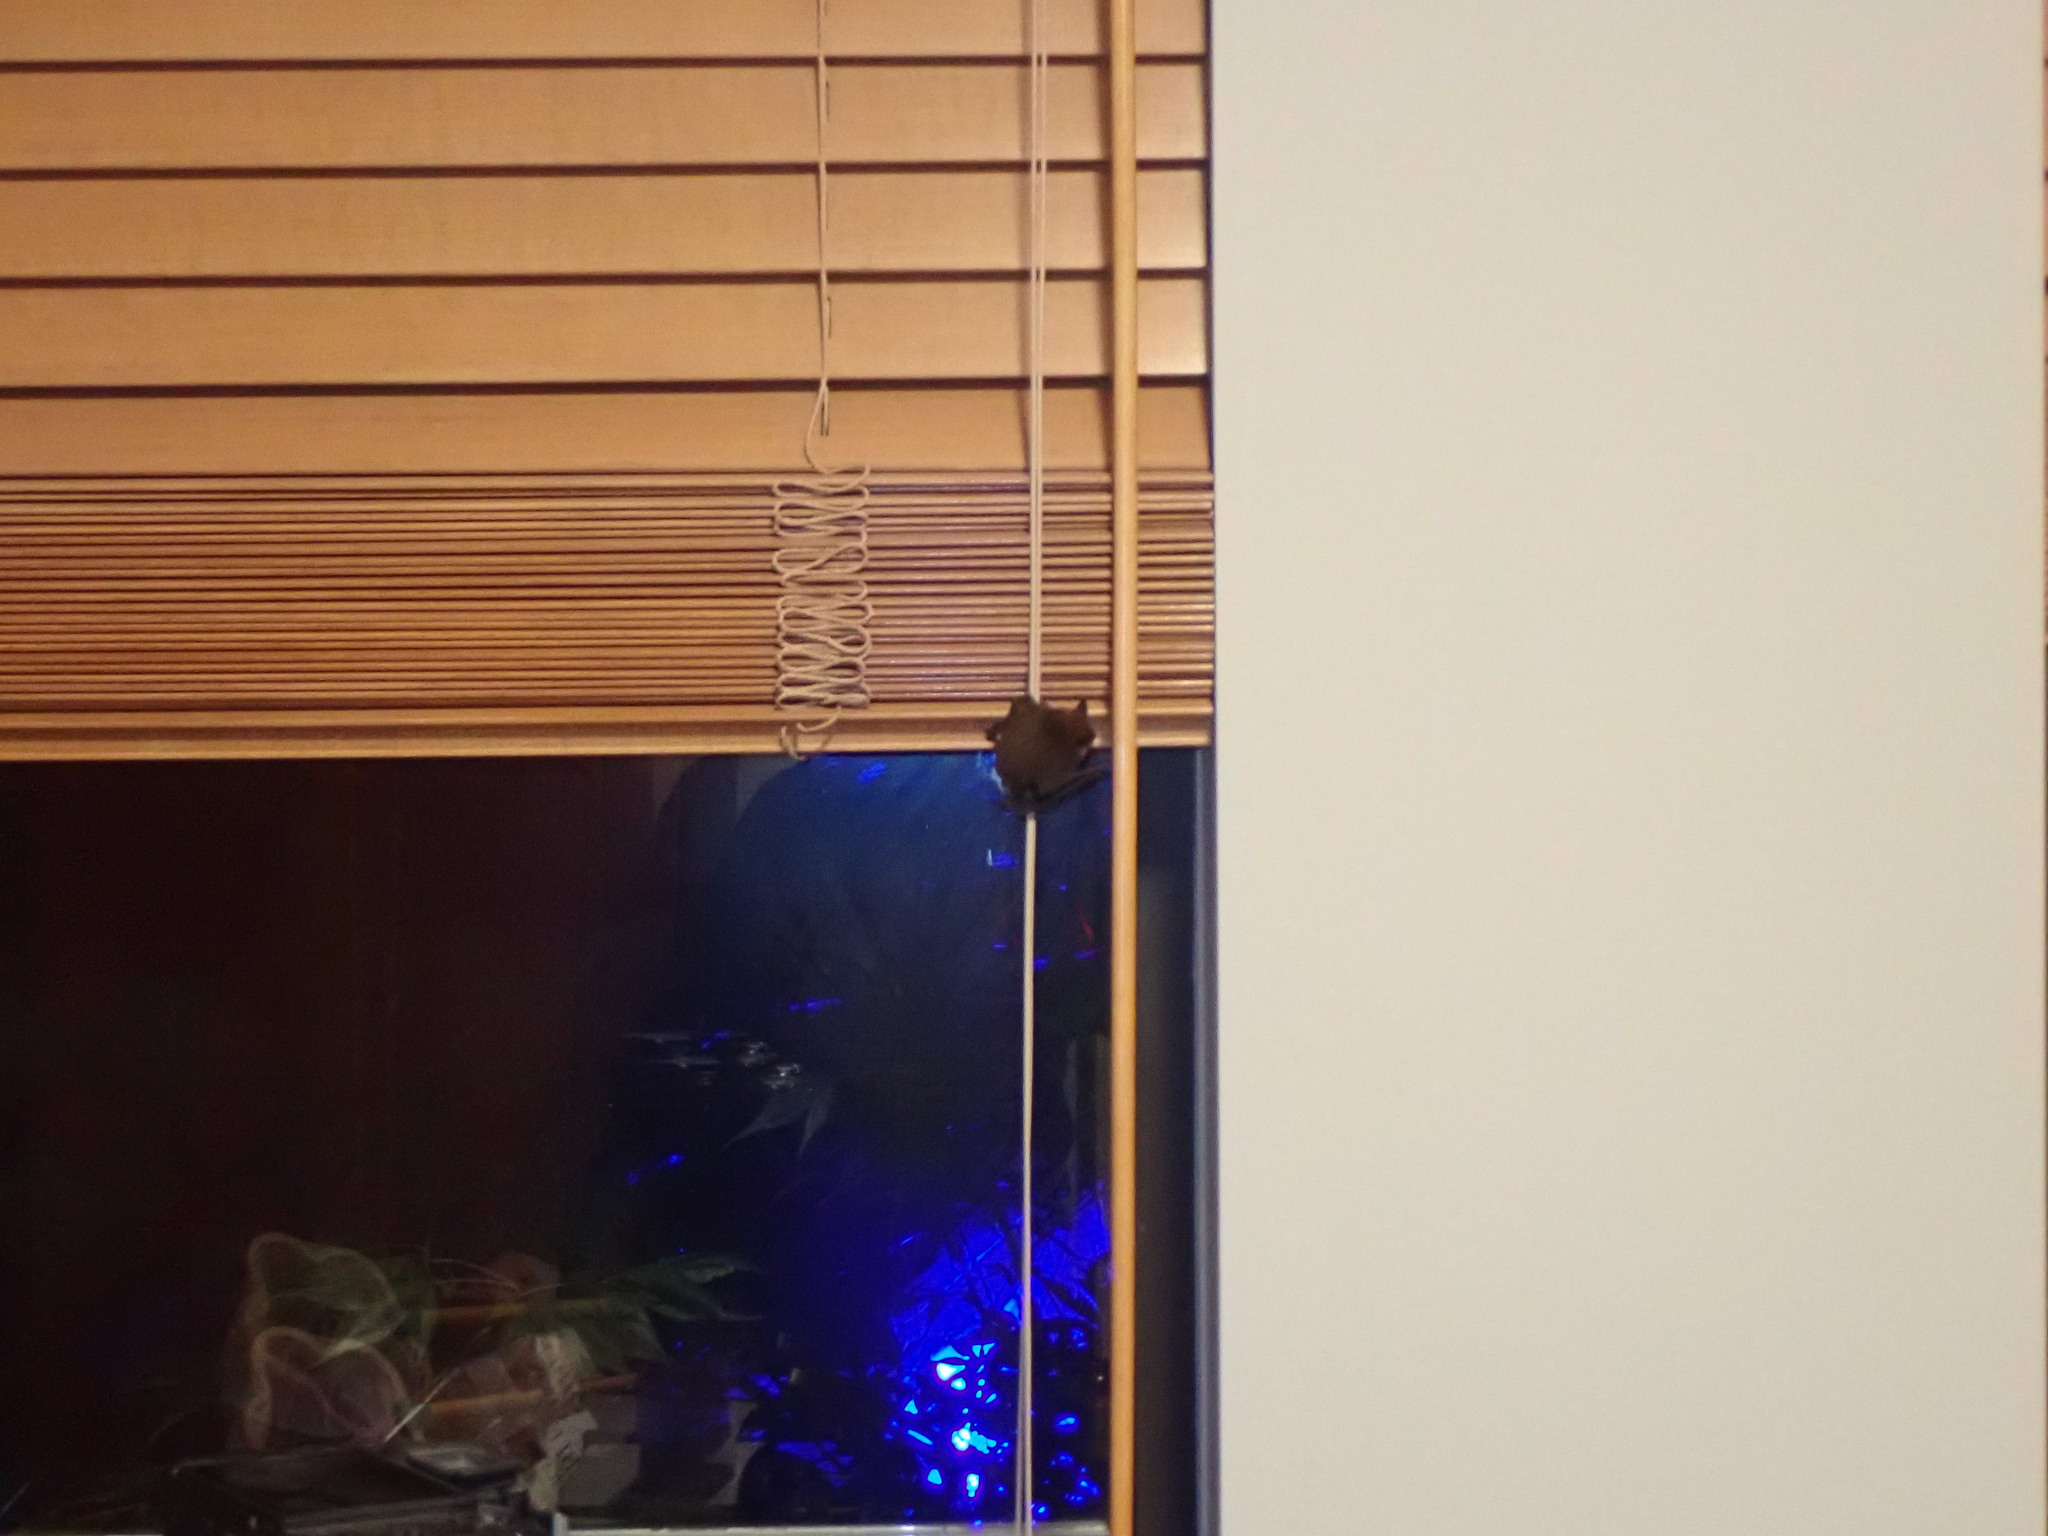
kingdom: Animalia
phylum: Chordata
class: Mammalia
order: Chiroptera
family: Vespertilionidae
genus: Myotis
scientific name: Myotis lucifugus
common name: Little brown bat
